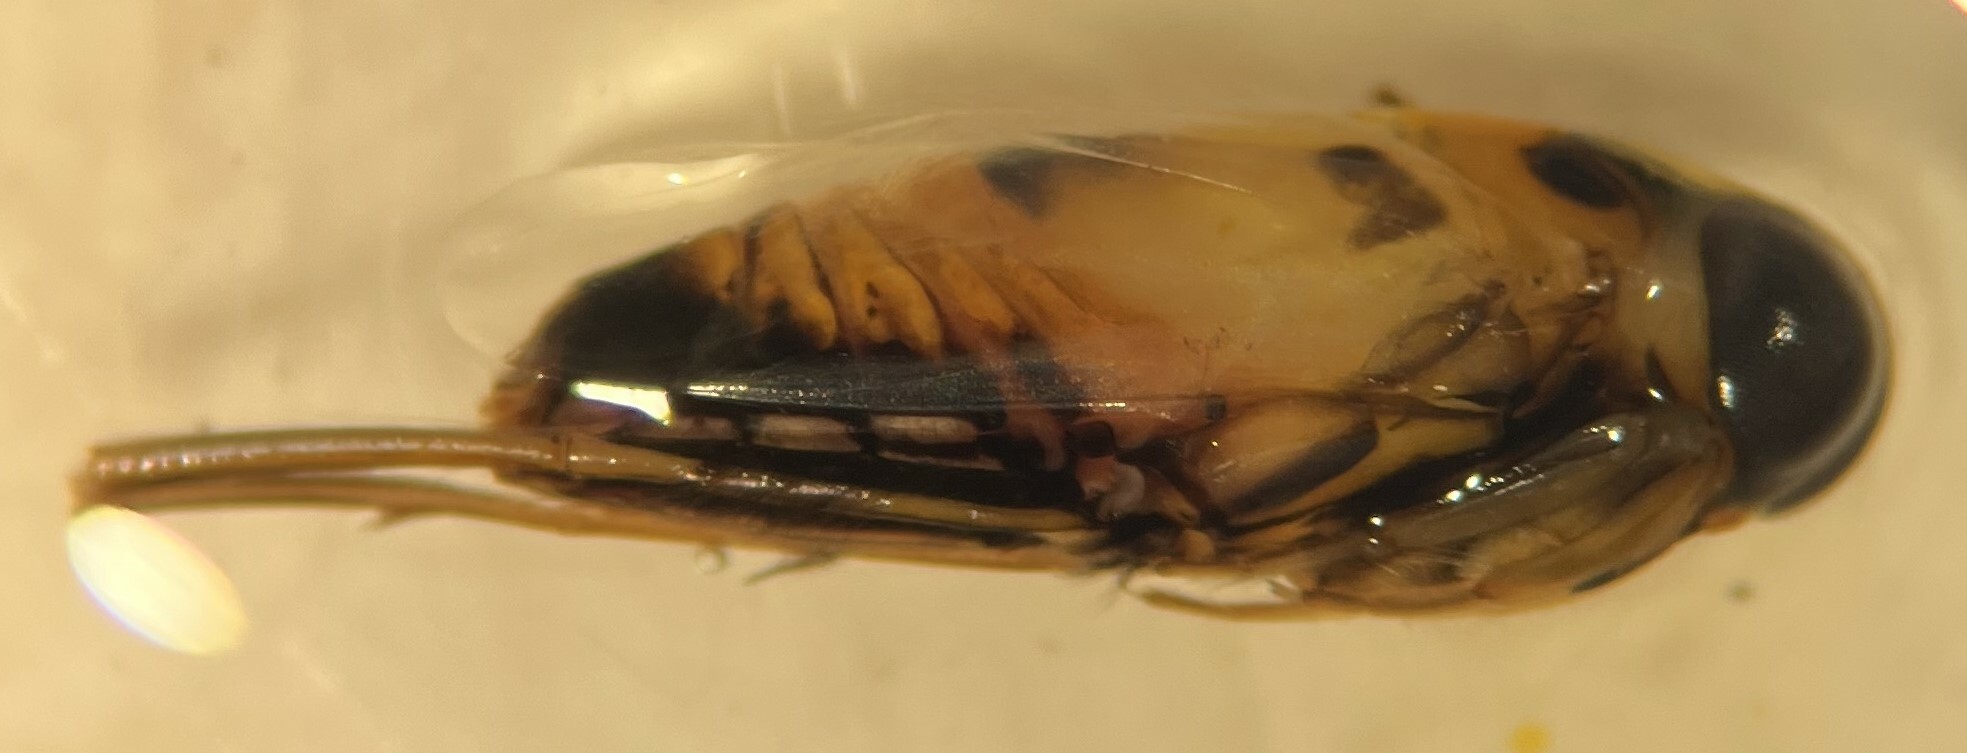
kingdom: Animalia
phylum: Arthropoda
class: Insecta
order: Hemiptera
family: Notonectidae
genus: Buenoa
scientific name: Buenoa scimitra
